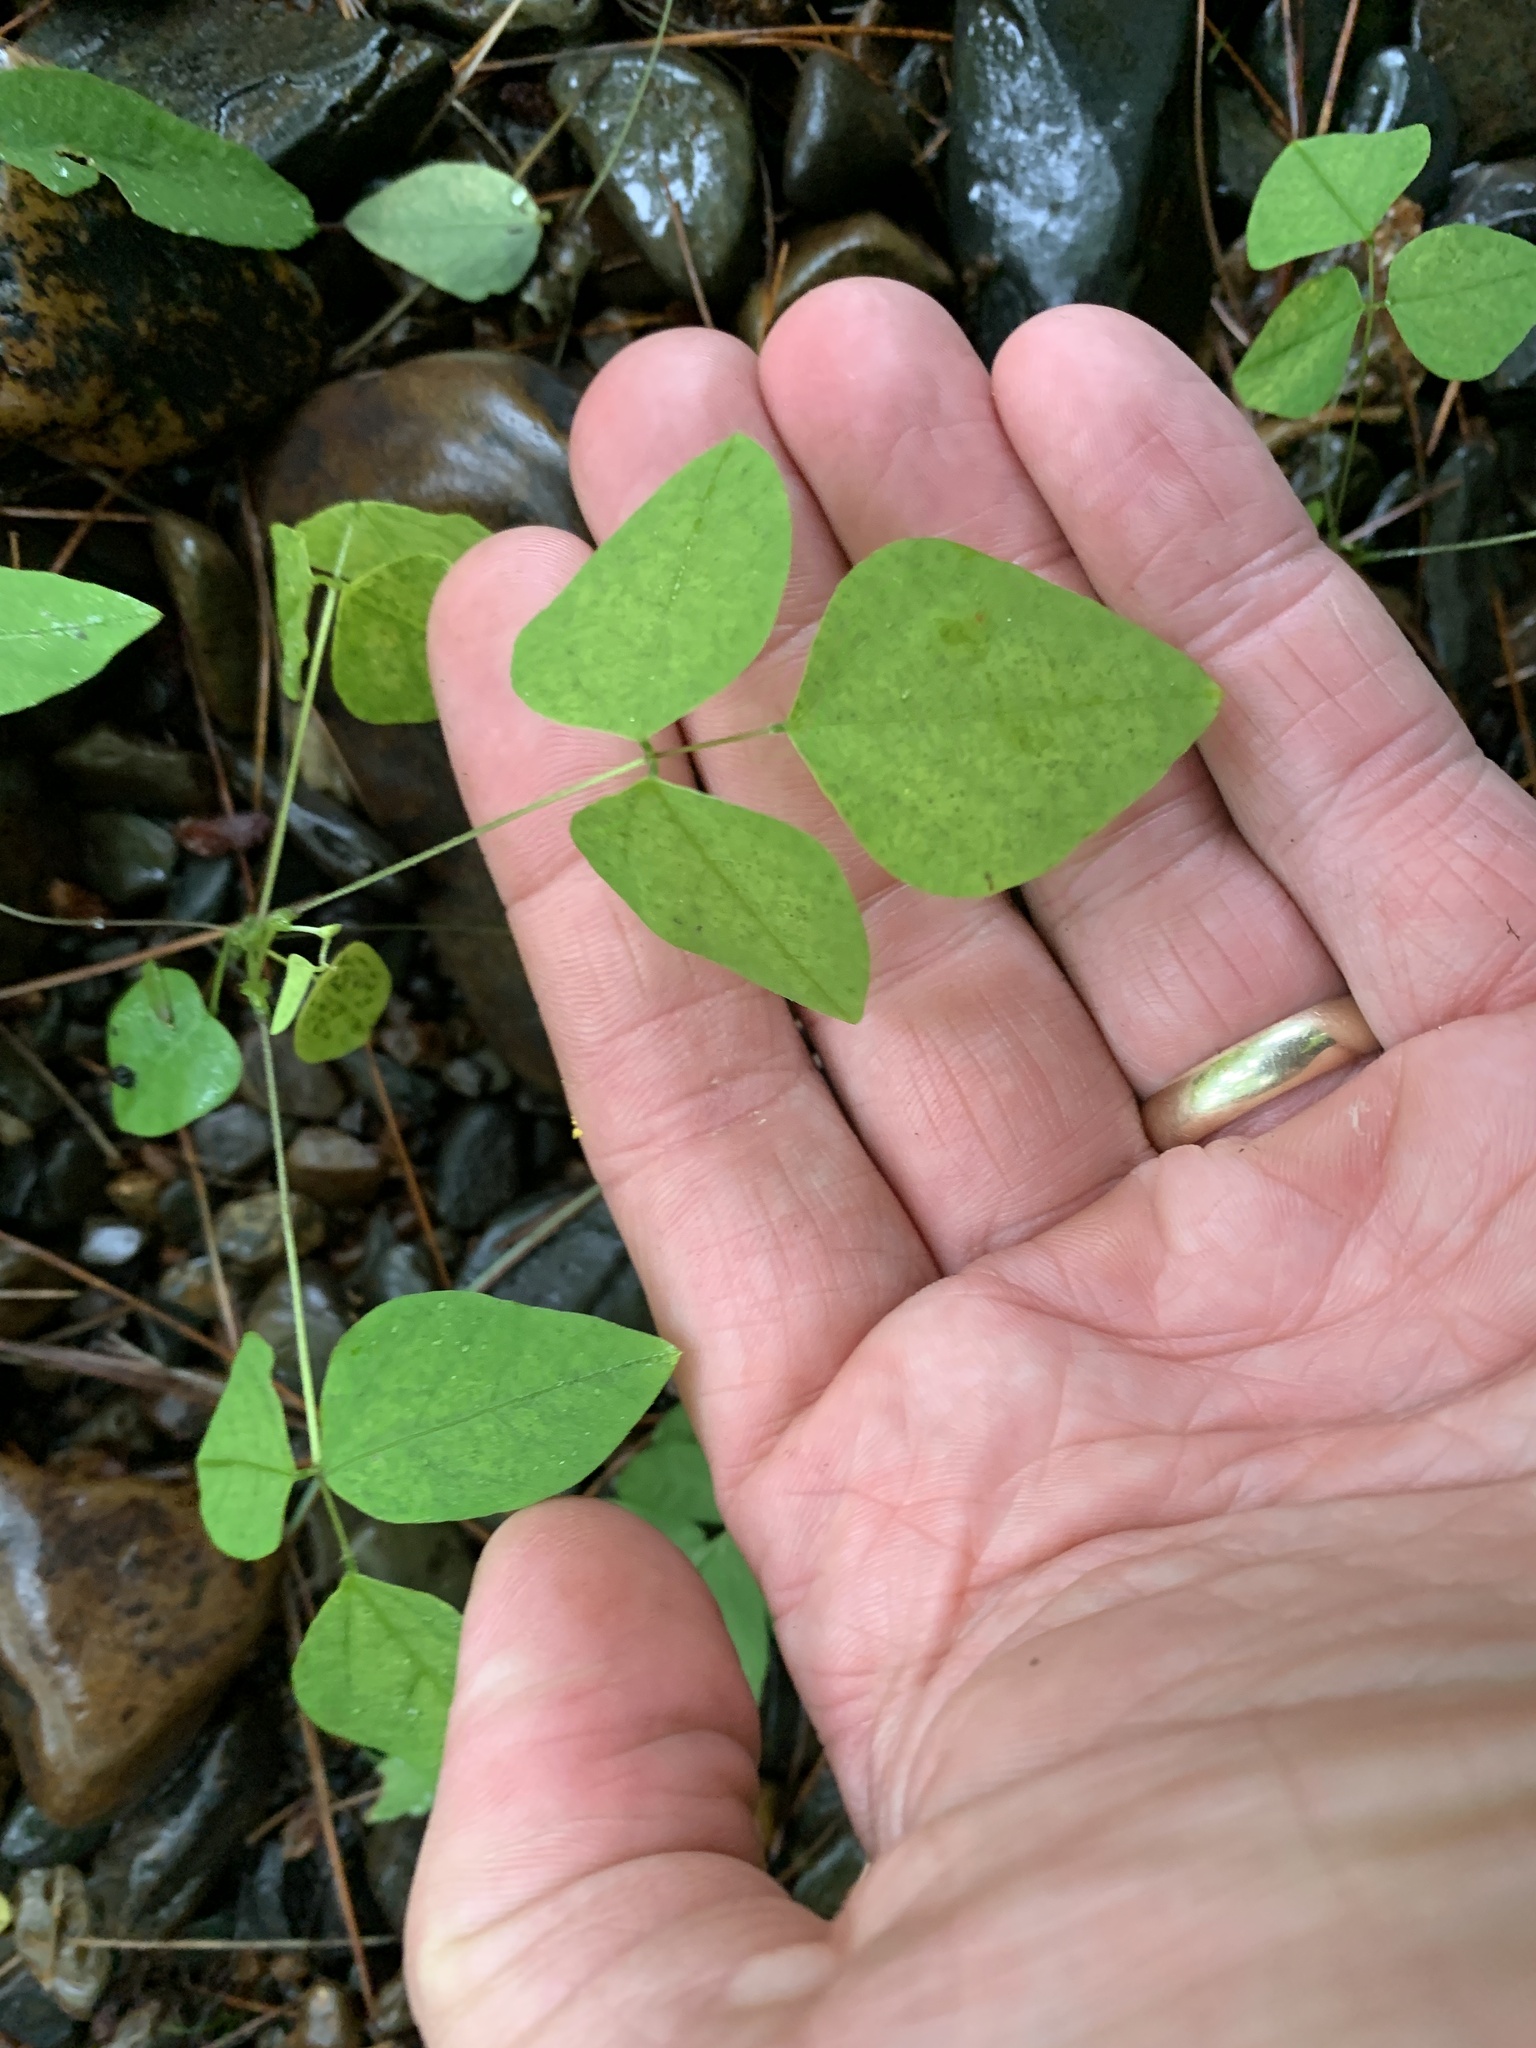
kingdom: Plantae
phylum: Tracheophyta
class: Magnoliopsida
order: Fabales
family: Fabaceae
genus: Amphicarpaea
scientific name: Amphicarpaea bracteata
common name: American hog peanut
